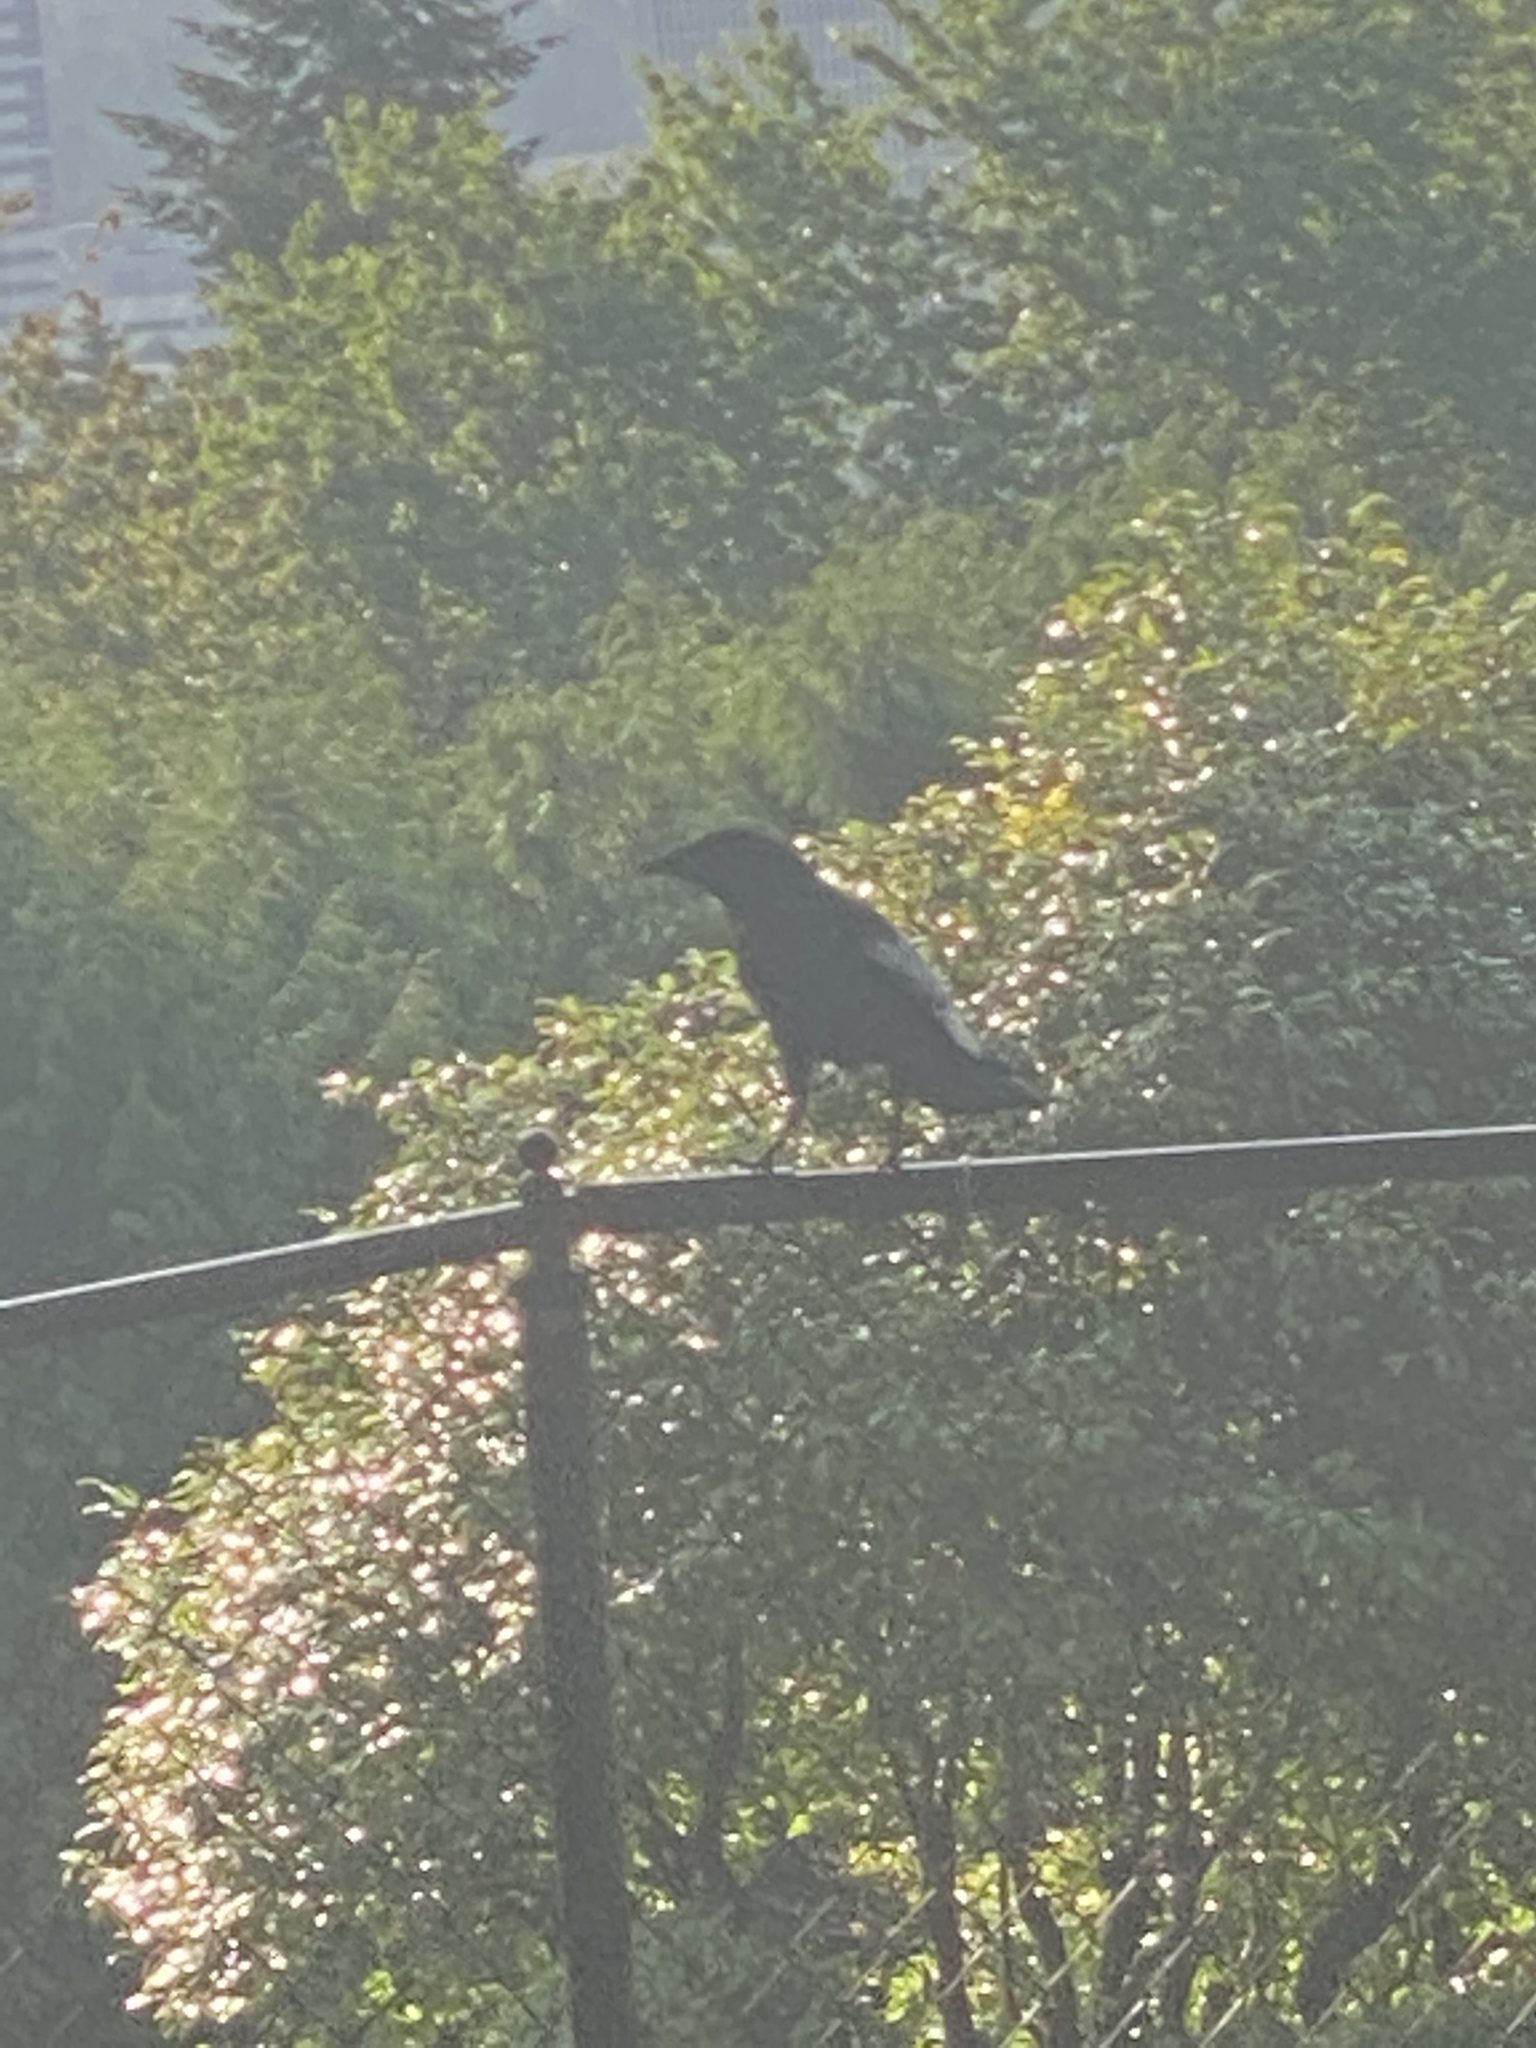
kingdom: Animalia
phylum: Chordata
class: Aves
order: Passeriformes
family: Corvidae
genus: Corvus
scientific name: Corvus brachyrhynchos
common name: American crow
